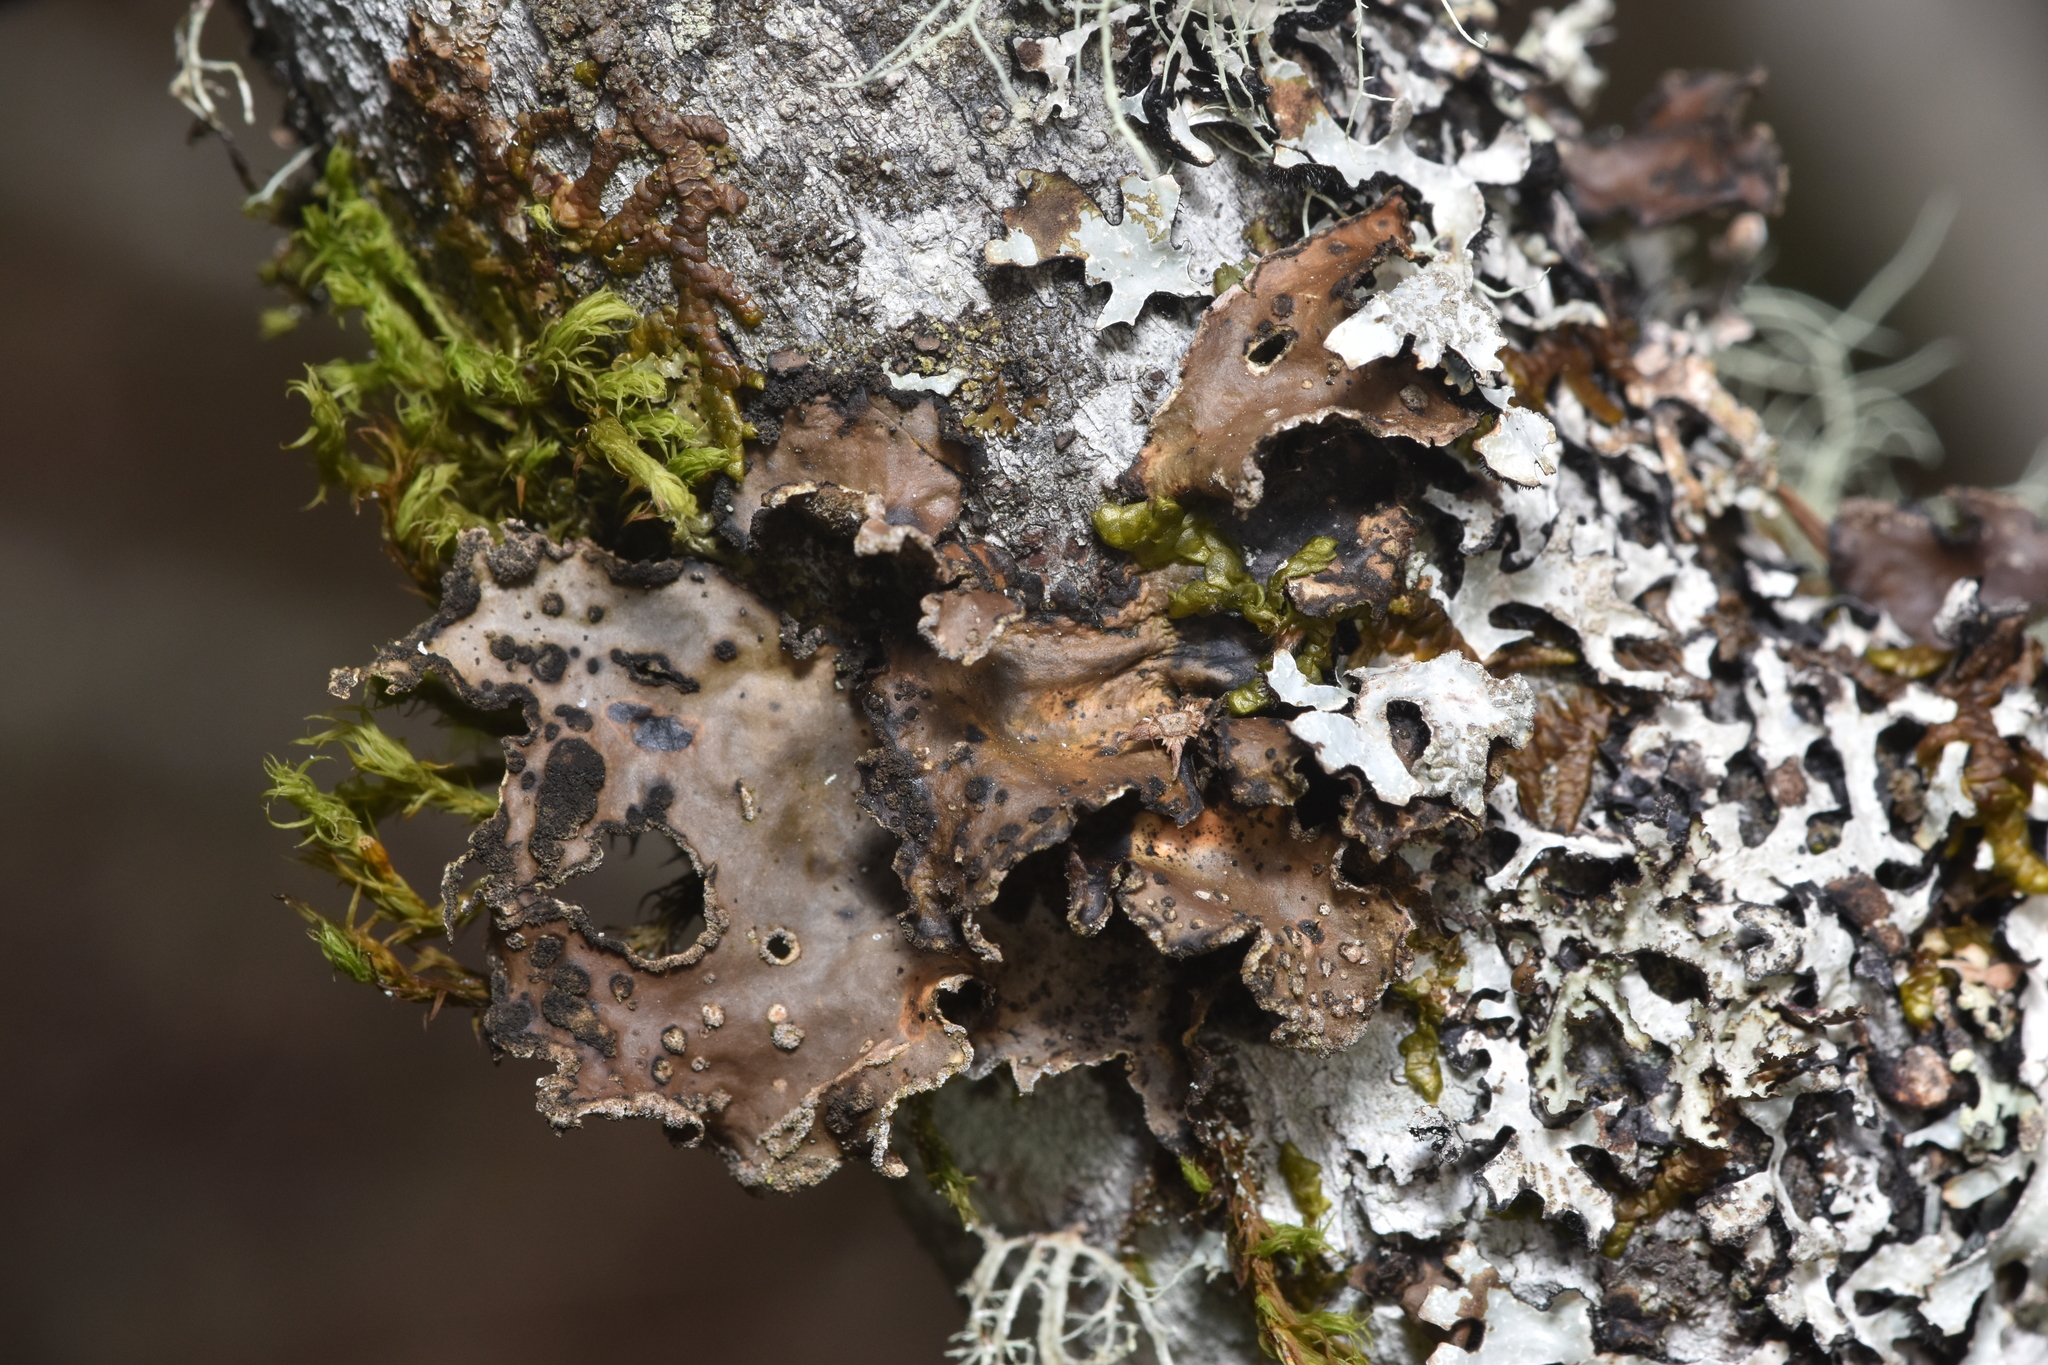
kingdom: Fungi
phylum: Ascomycota
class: Lecanoromycetes
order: Peltigerales
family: Lobariaceae
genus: Sticta
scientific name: Sticta limbata
